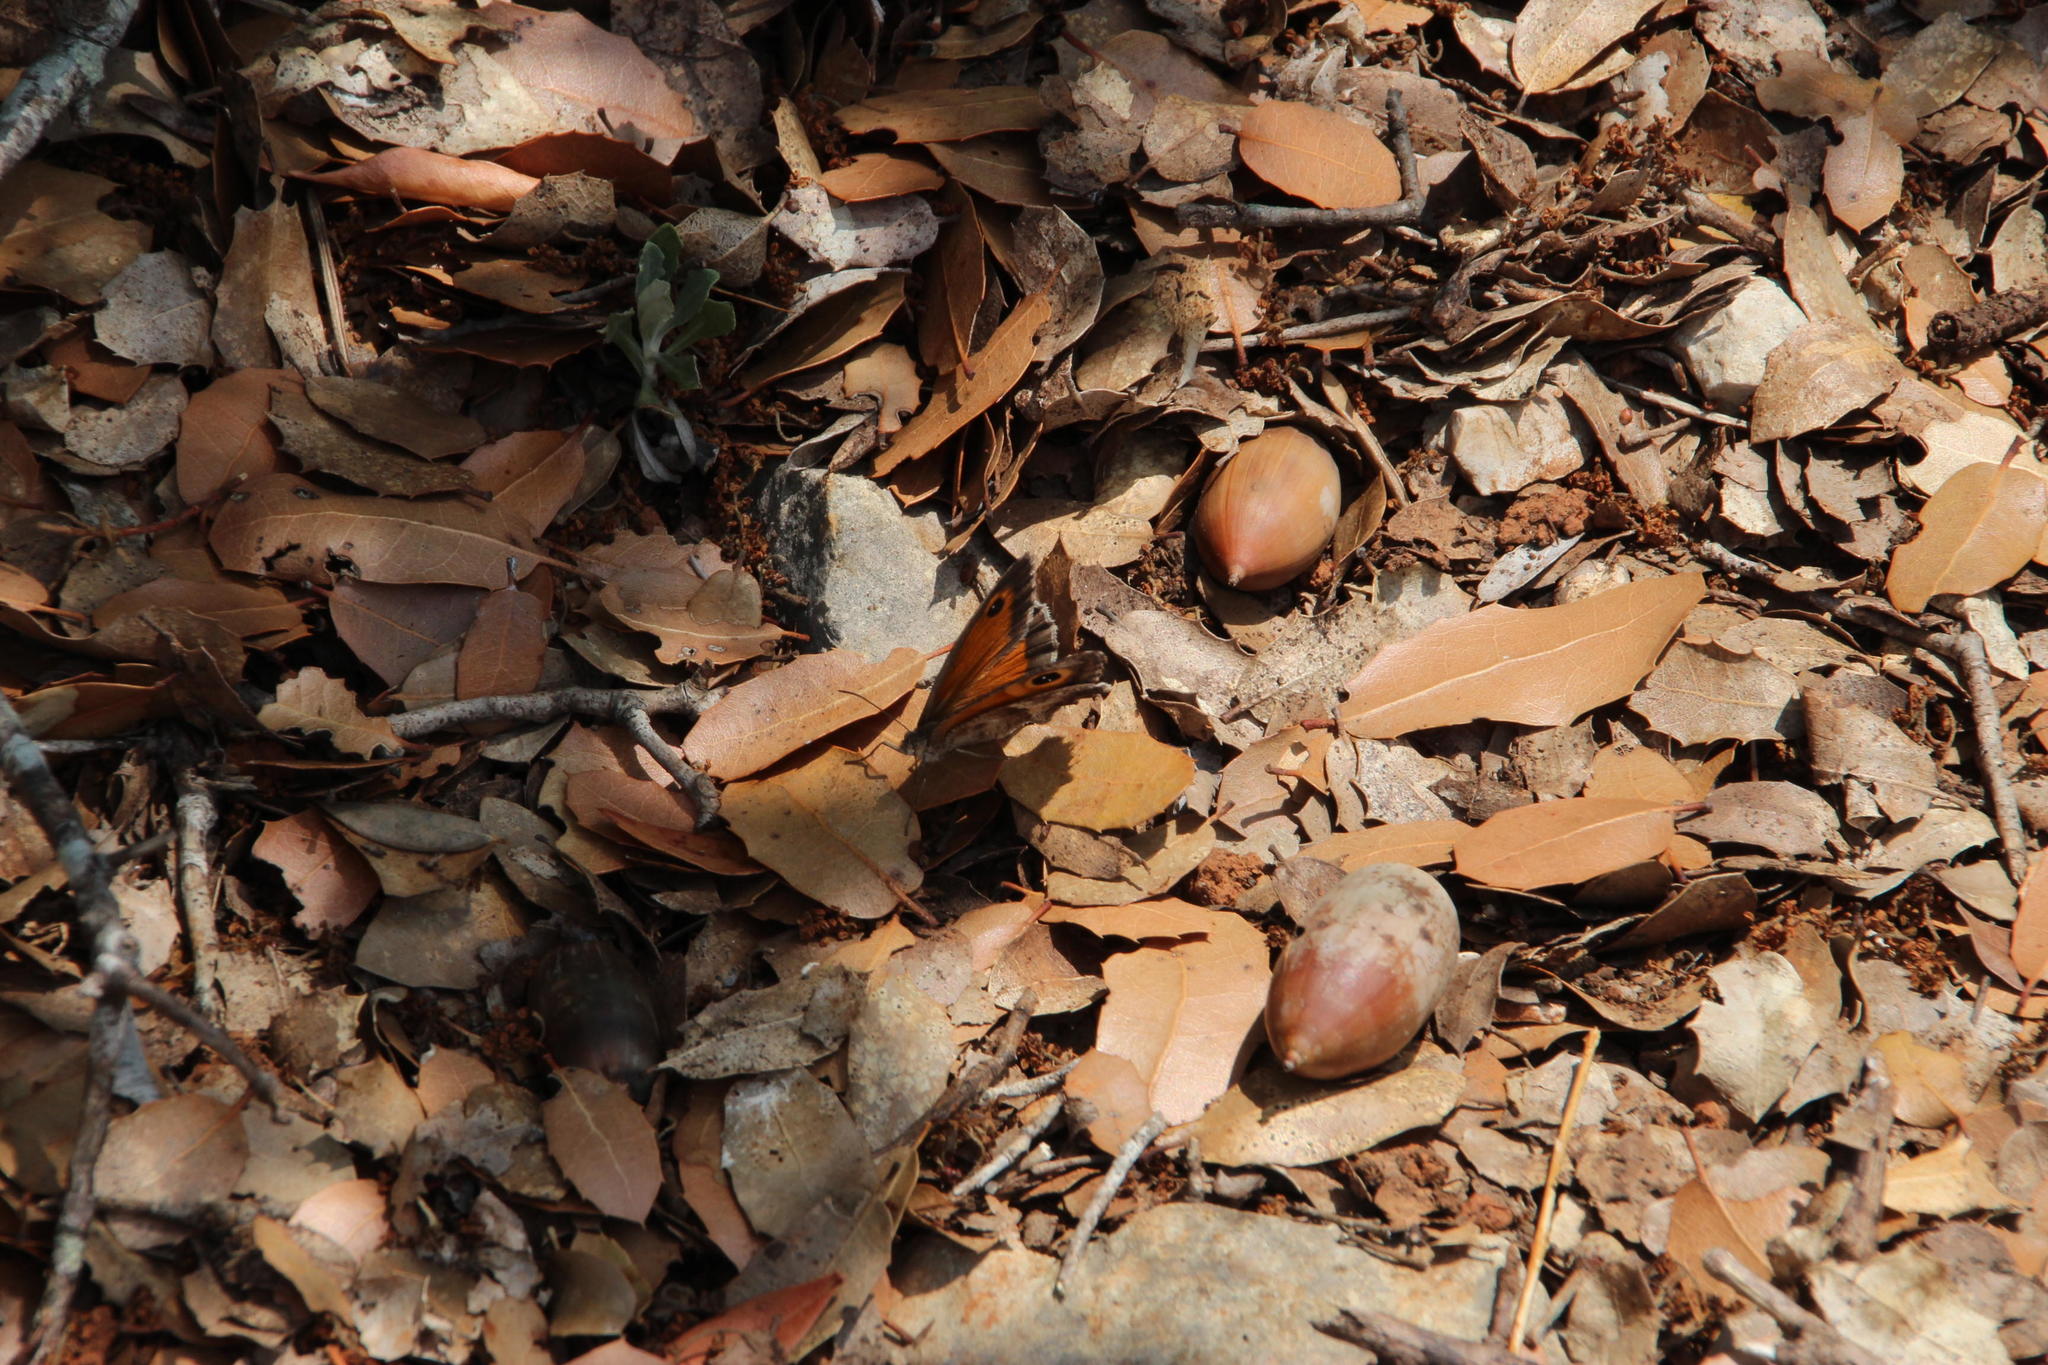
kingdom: Plantae
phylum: Tracheophyta
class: Magnoliopsida
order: Fagales
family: Fagaceae
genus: Quercus
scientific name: Quercus coccifera
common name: Kermes oak
